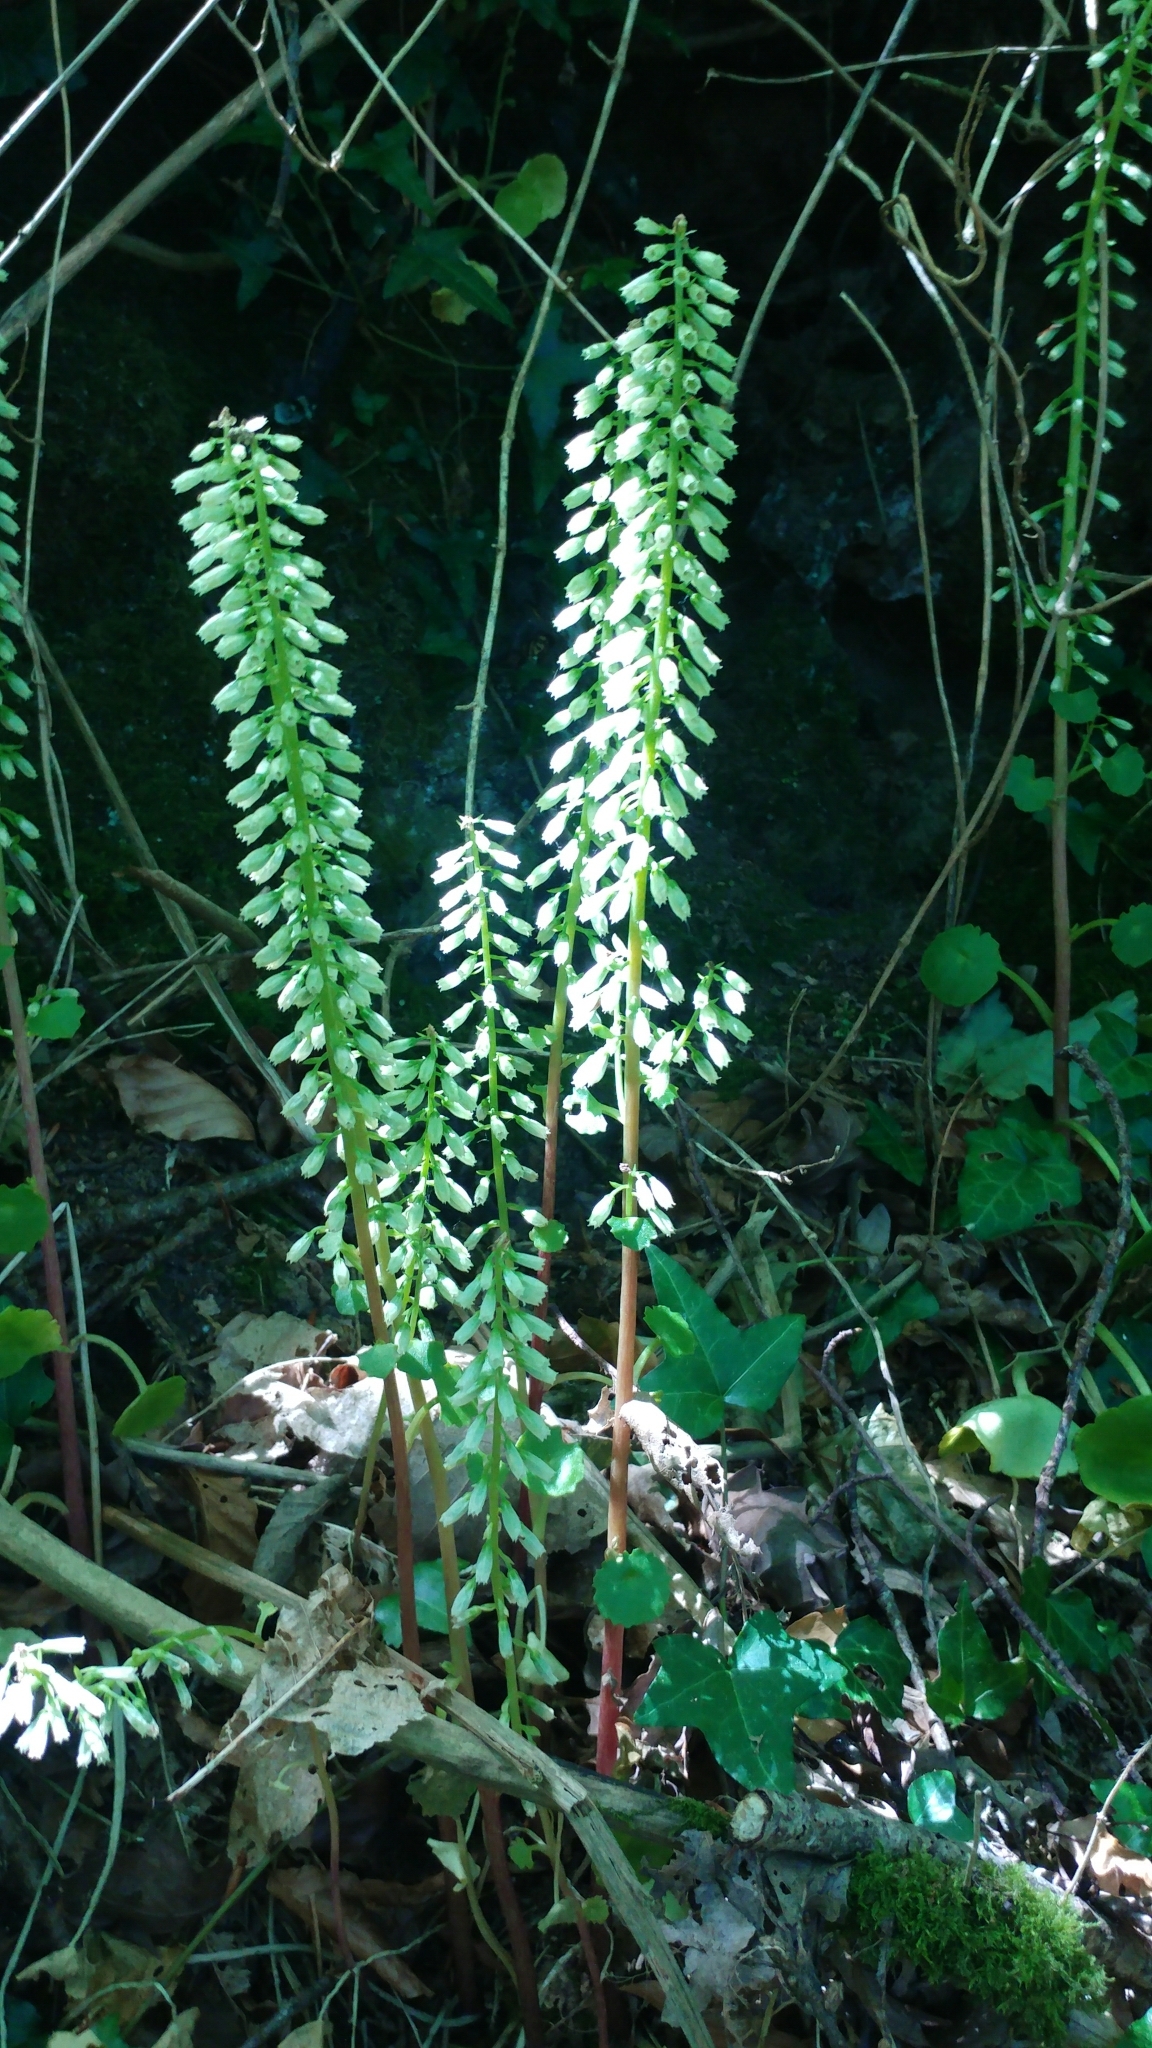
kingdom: Plantae
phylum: Tracheophyta
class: Magnoliopsida
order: Saxifragales
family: Crassulaceae
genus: Umbilicus
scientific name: Umbilicus rupestris
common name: Navelwort
